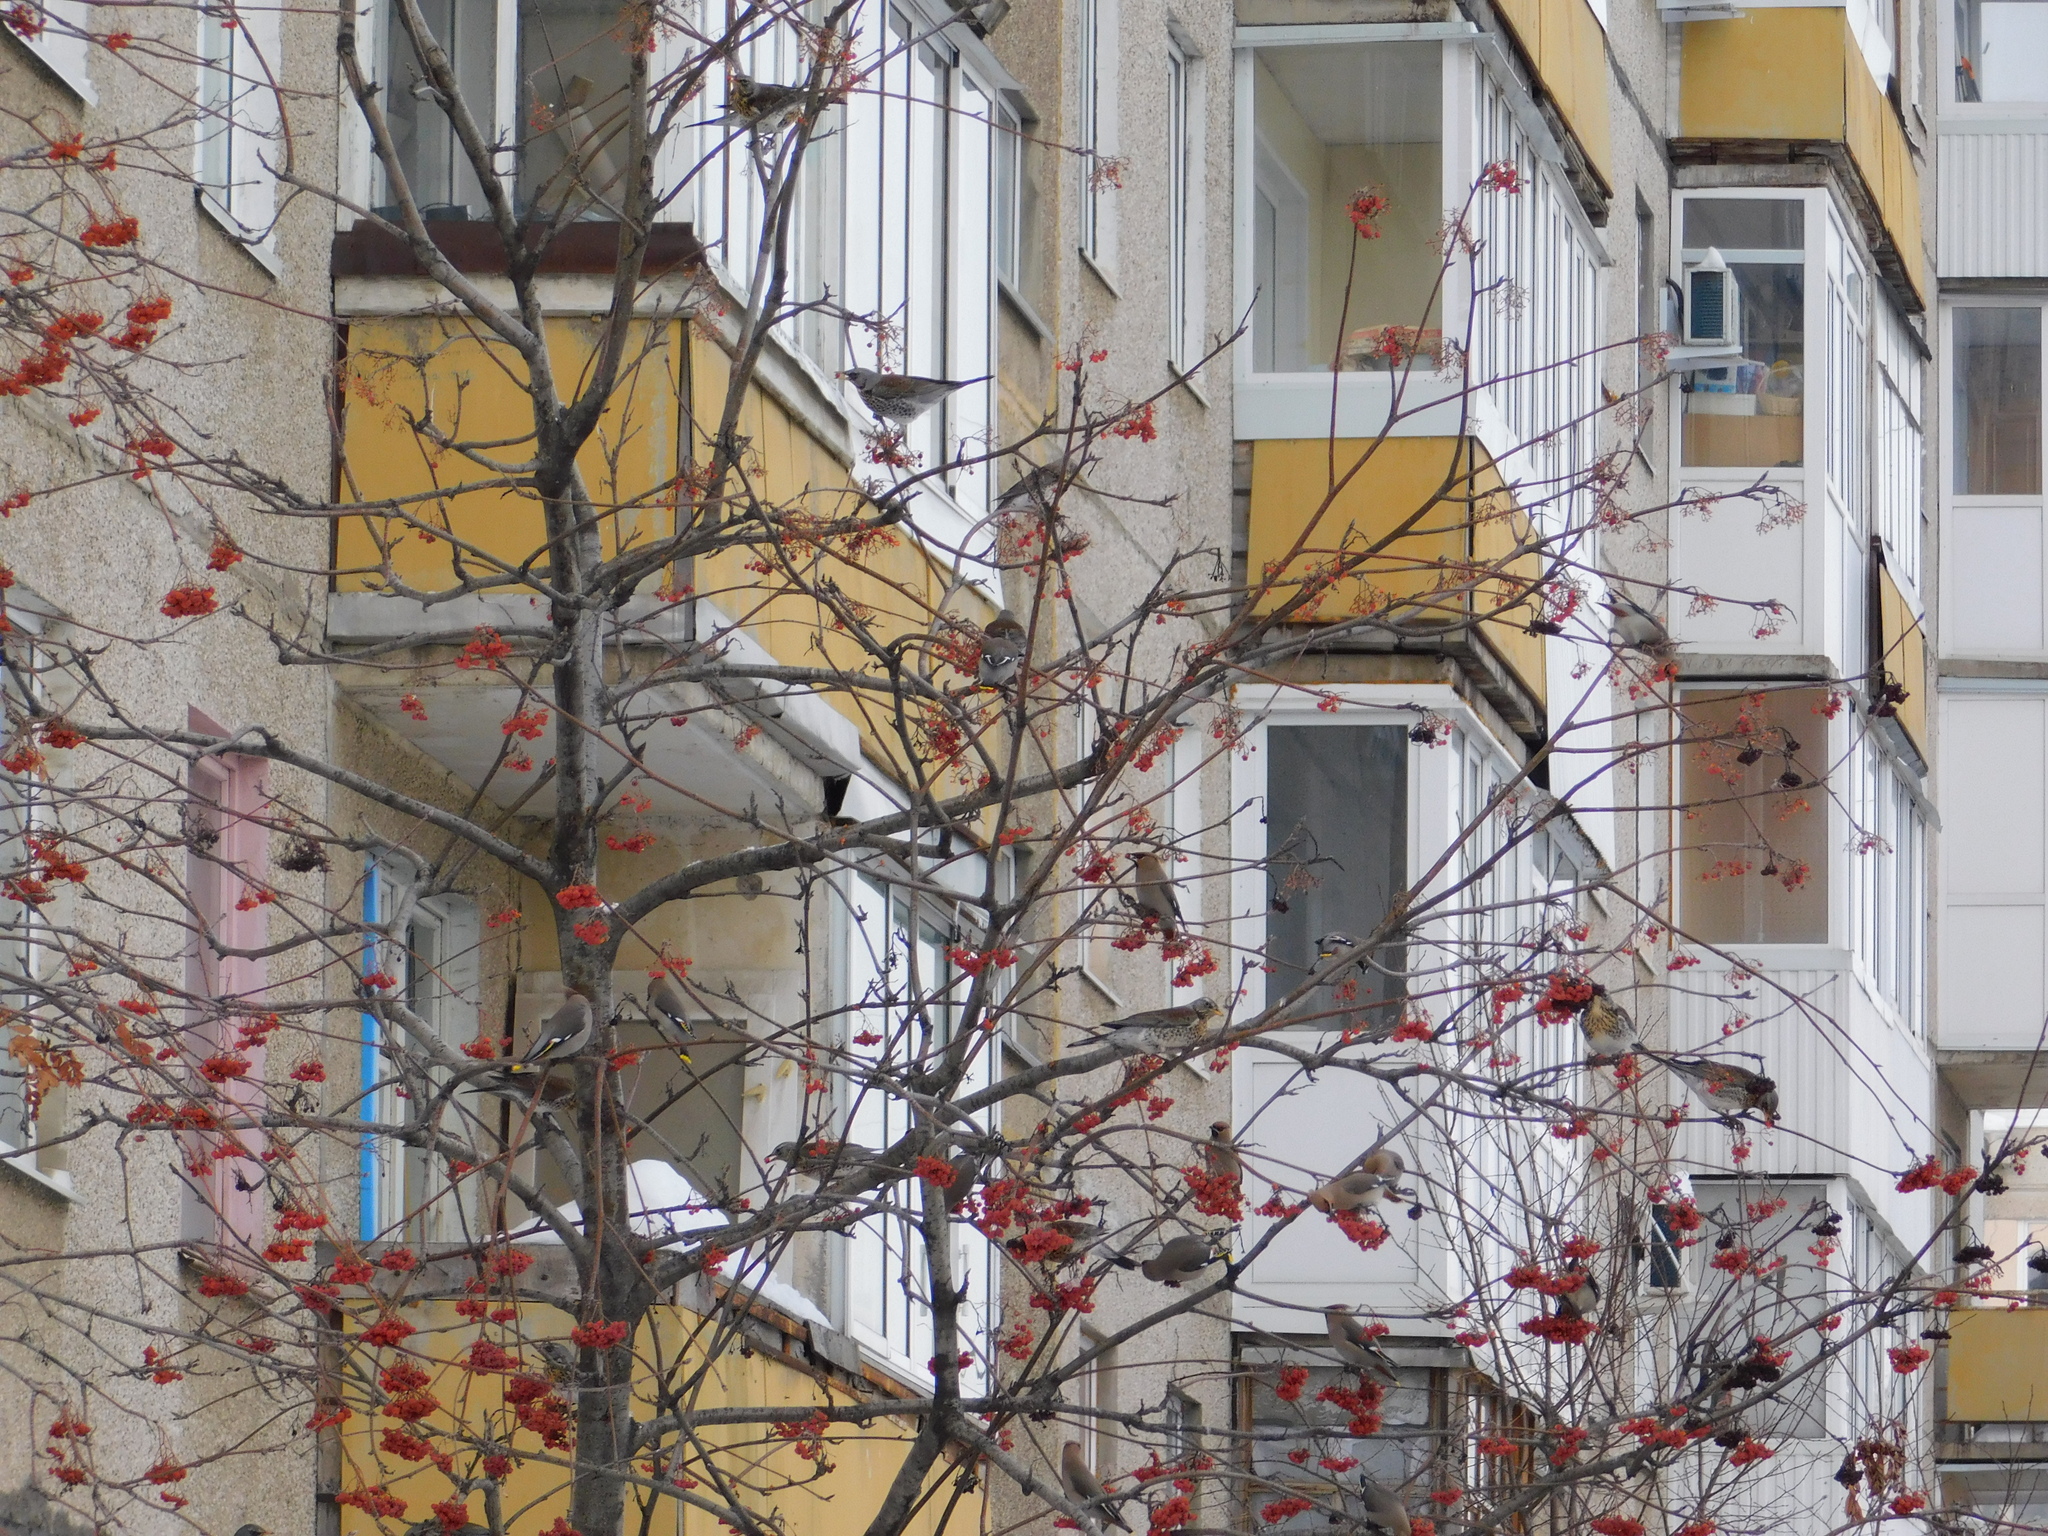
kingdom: Animalia
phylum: Chordata
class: Aves
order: Passeriformes
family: Turdidae
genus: Turdus
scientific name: Turdus pilaris
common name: Fieldfare
